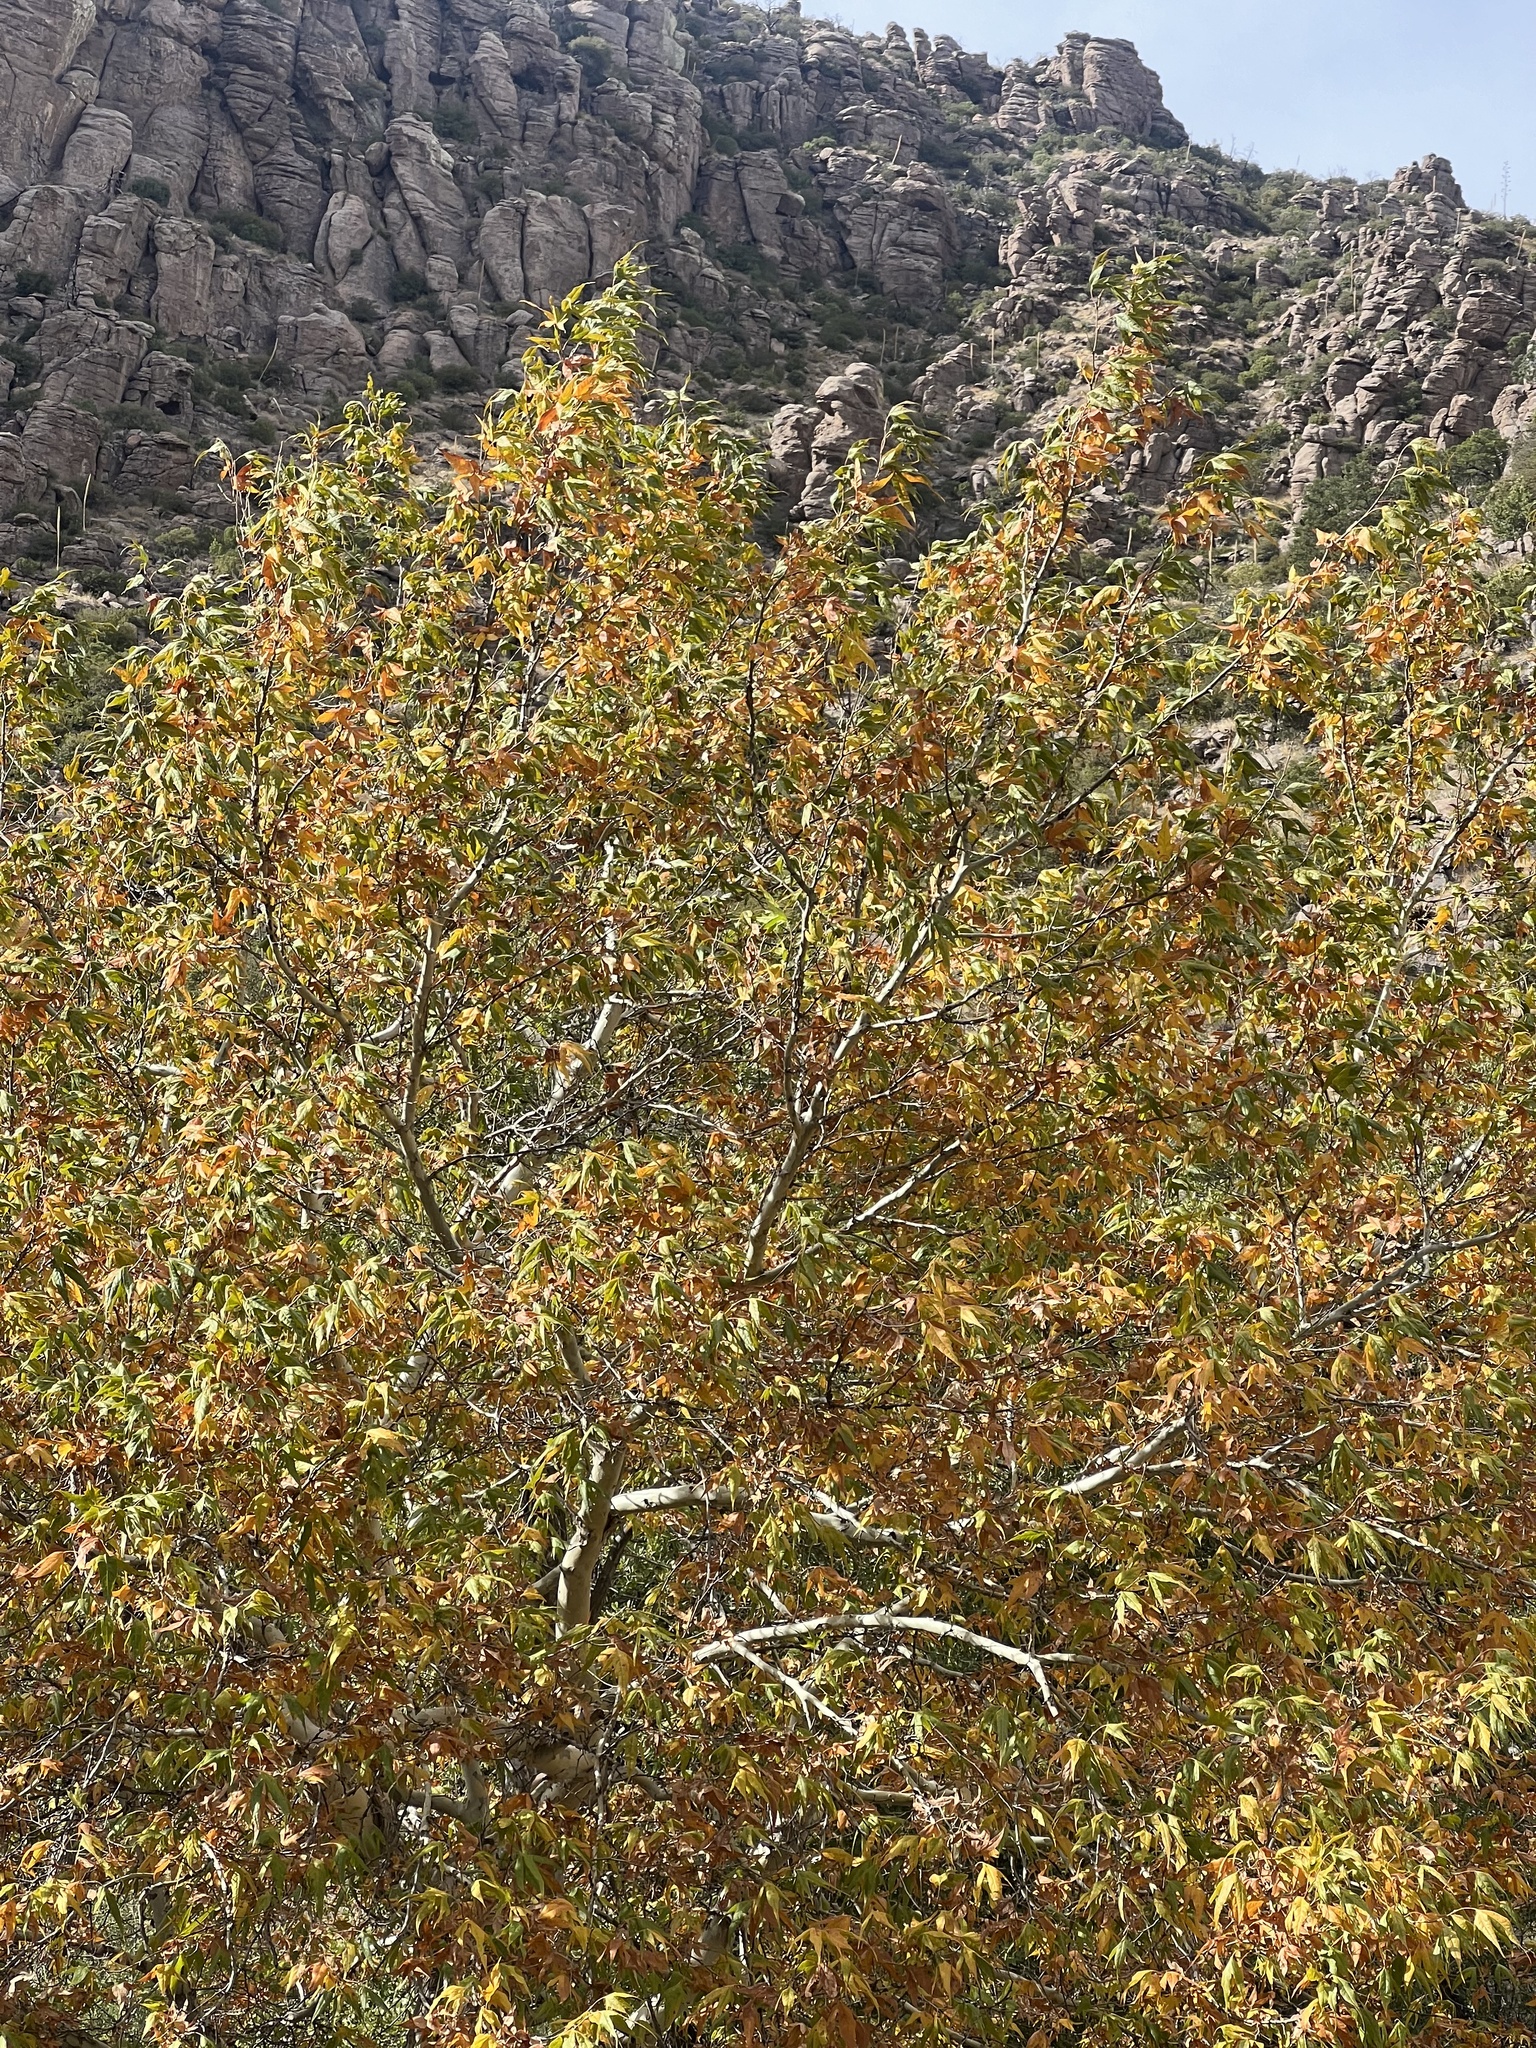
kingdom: Plantae
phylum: Tracheophyta
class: Magnoliopsida
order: Proteales
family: Platanaceae
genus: Platanus
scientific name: Platanus wrightii
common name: Arizona sycamore
